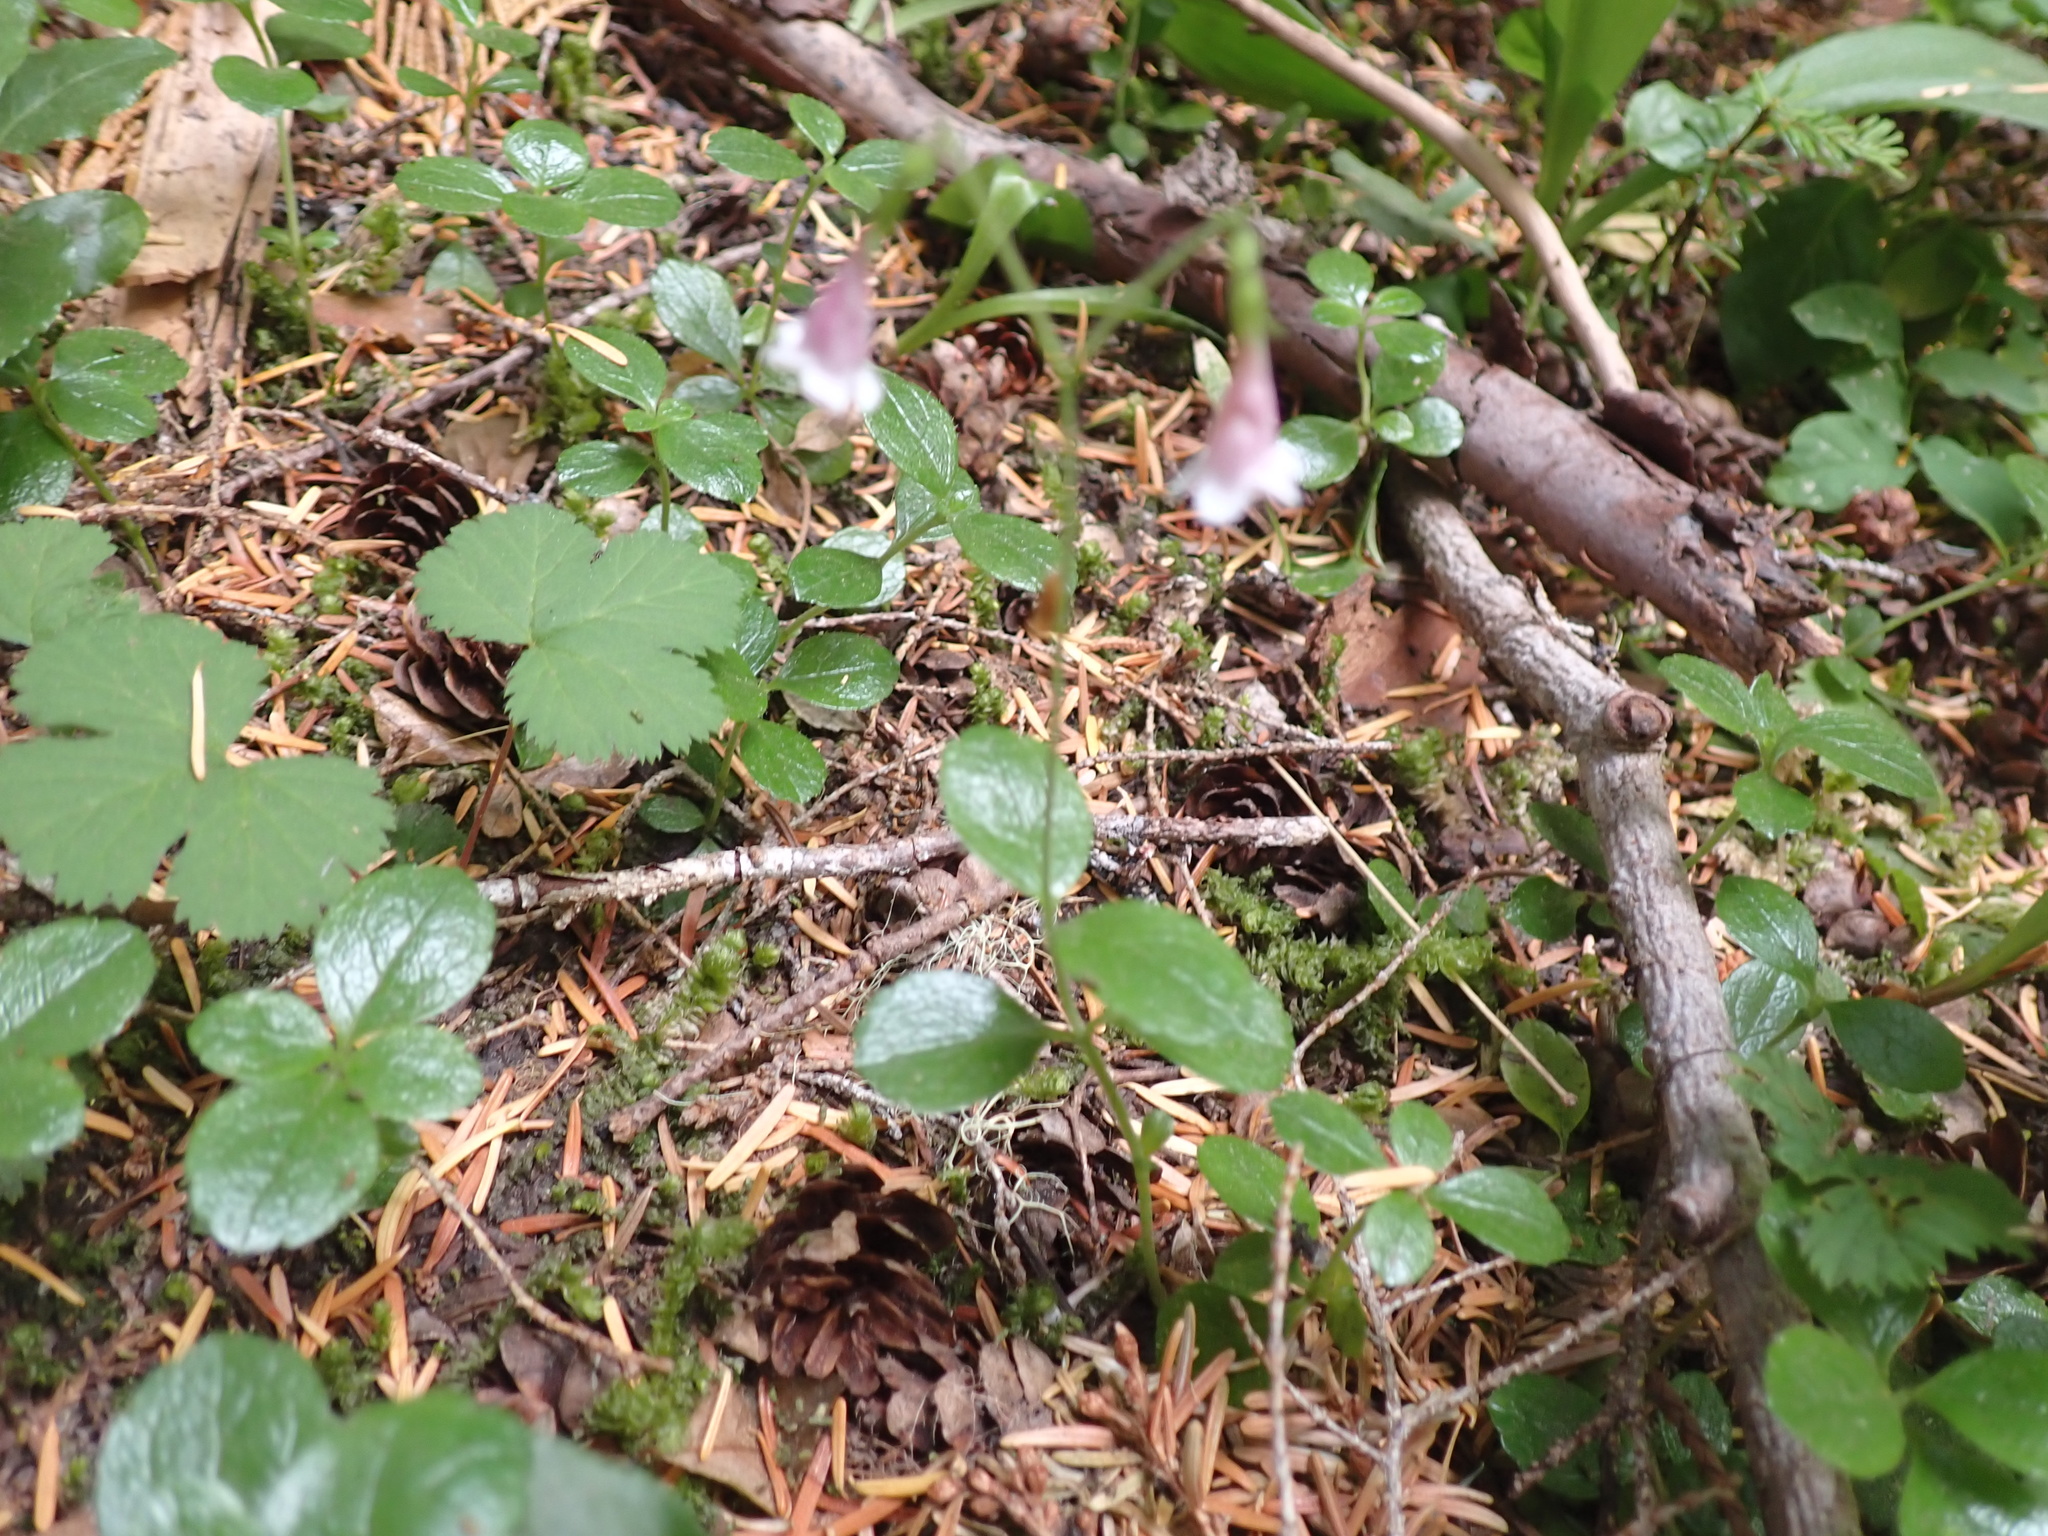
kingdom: Plantae
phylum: Tracheophyta
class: Magnoliopsida
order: Dipsacales
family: Caprifoliaceae
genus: Linnaea
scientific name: Linnaea borealis
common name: Twinflower
